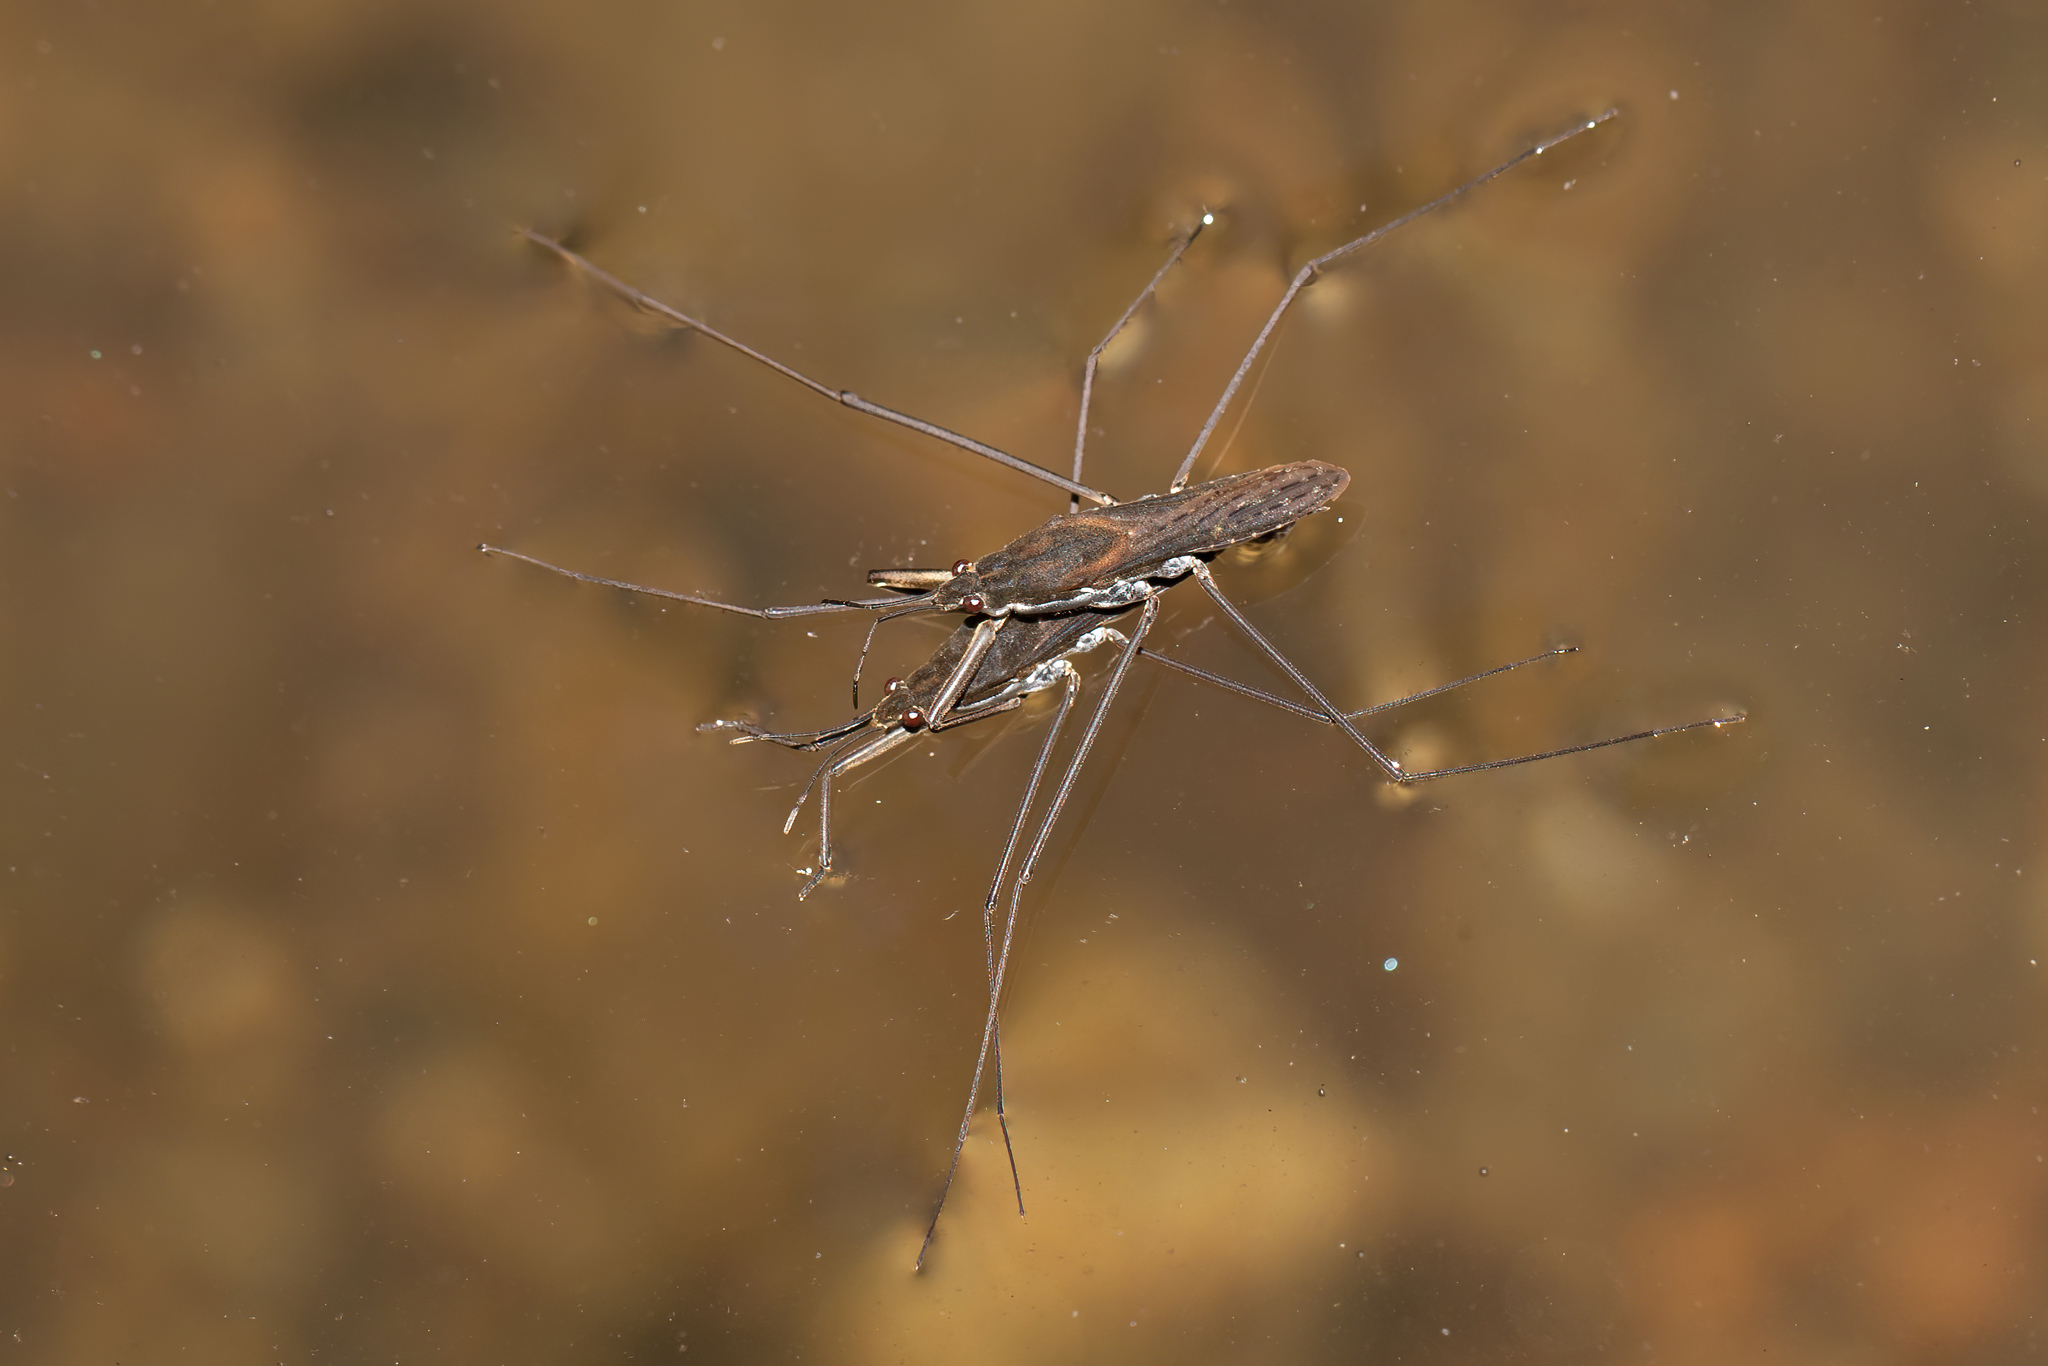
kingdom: Animalia
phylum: Arthropoda
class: Insecta
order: Hemiptera
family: Gerridae
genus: Aquarius
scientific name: Aquarius remigis
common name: Common water strider
